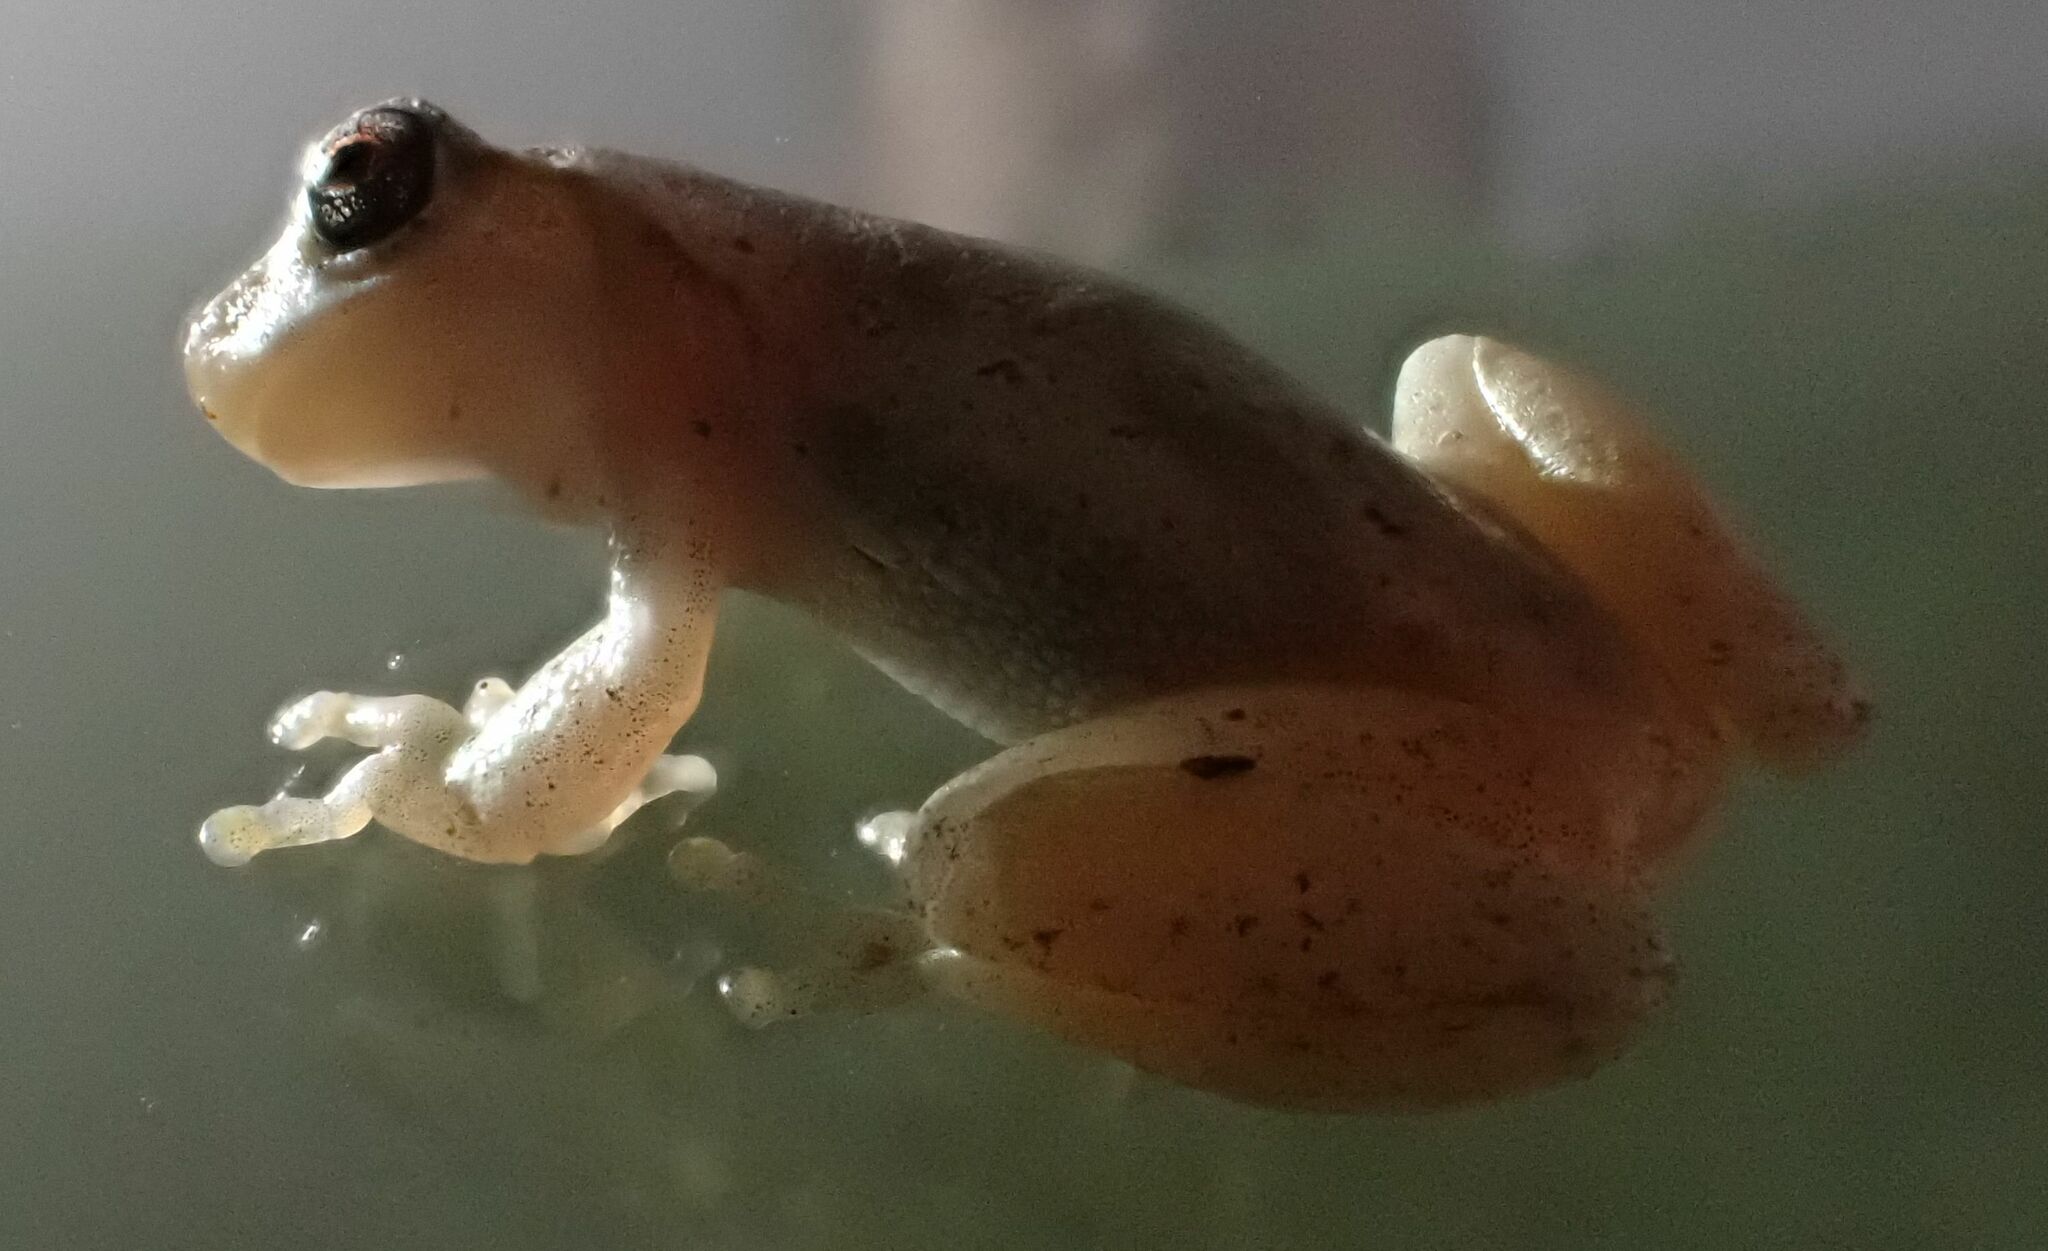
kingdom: Animalia
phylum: Chordata
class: Amphibia
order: Anura
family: Pelodryadidae
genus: Litoria
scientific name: Litoria rubella
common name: Desert tree frog
